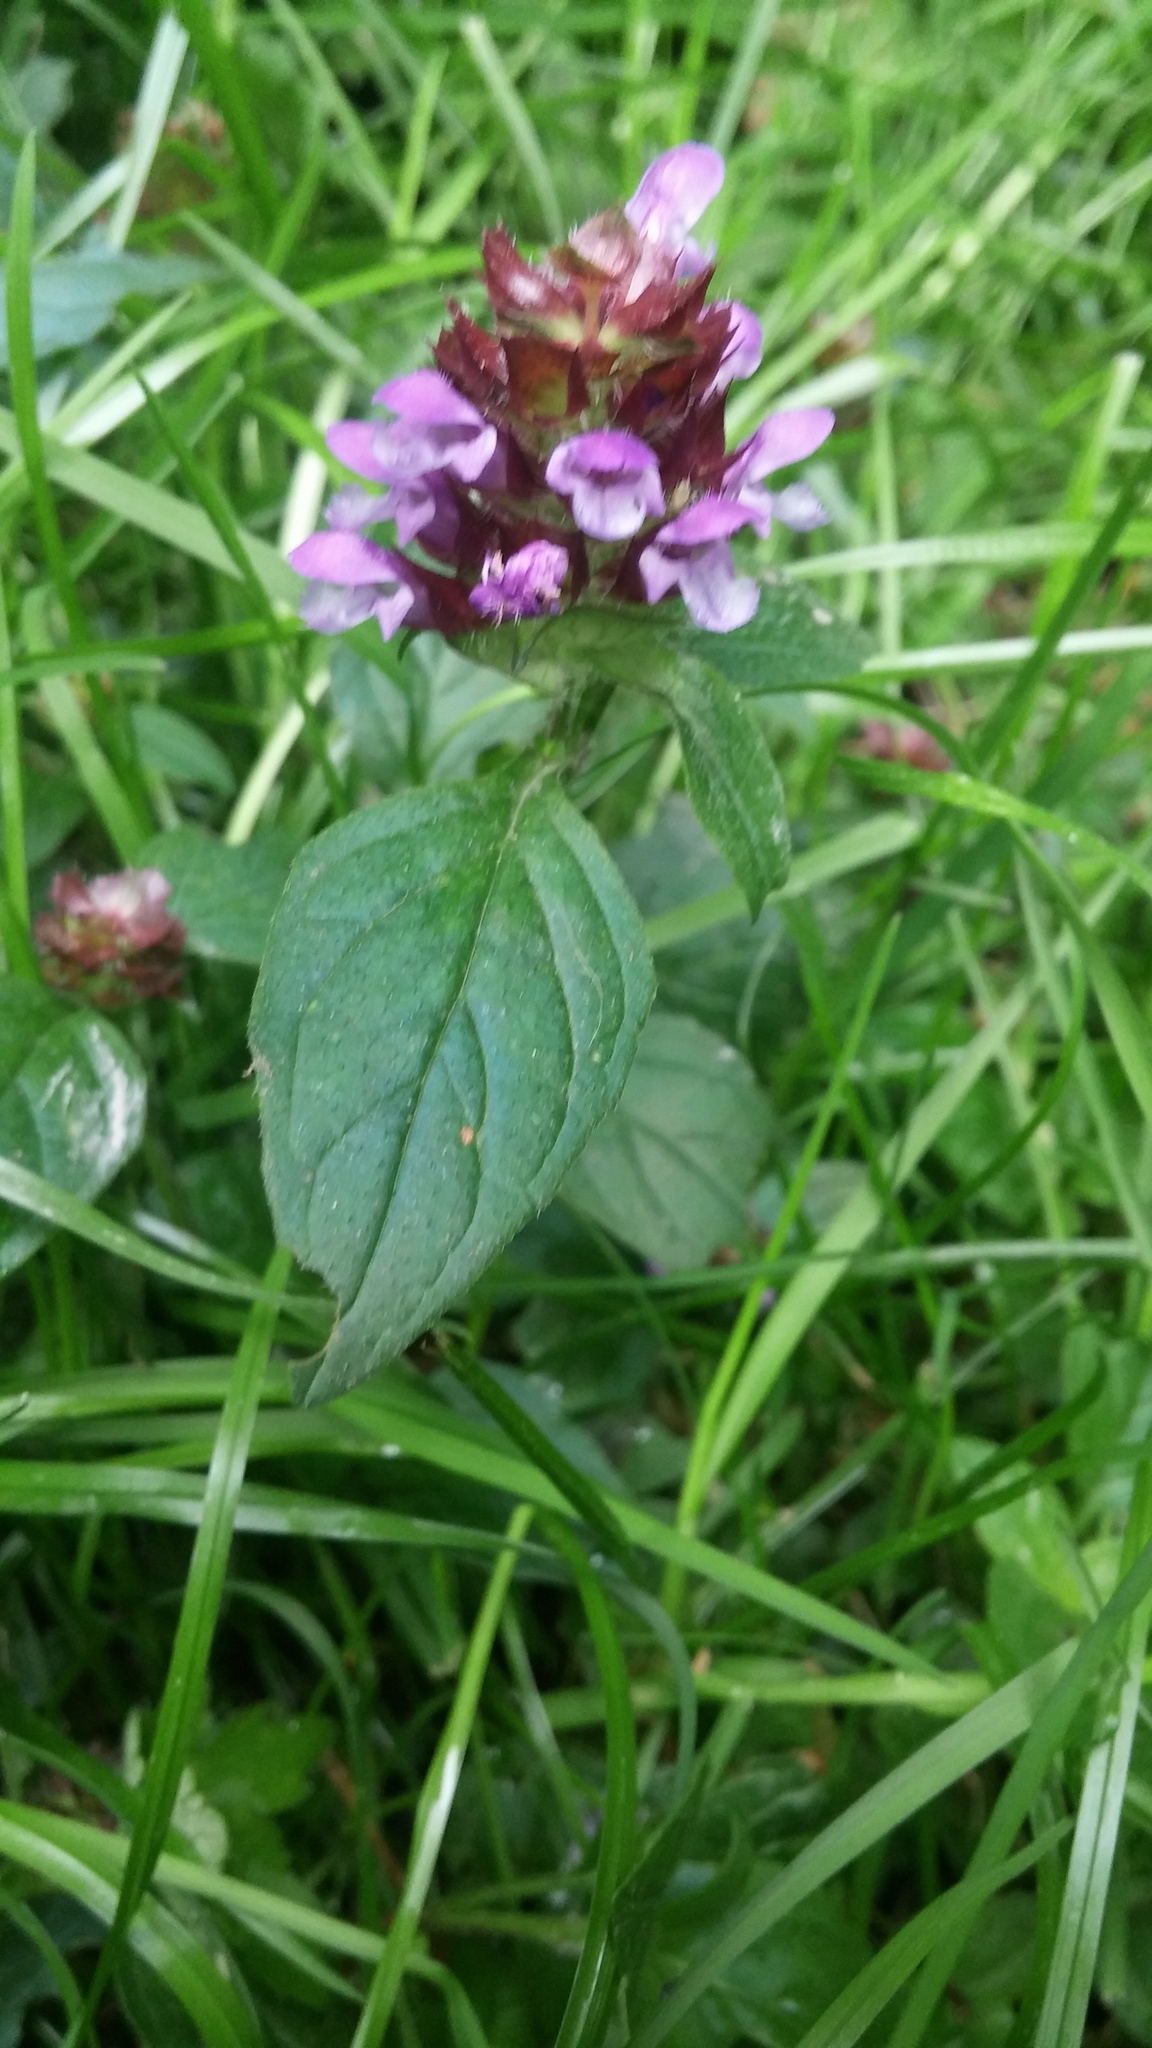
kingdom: Plantae
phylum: Tracheophyta
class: Magnoliopsida
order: Lamiales
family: Lamiaceae
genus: Prunella
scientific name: Prunella vulgaris
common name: Heal-all
